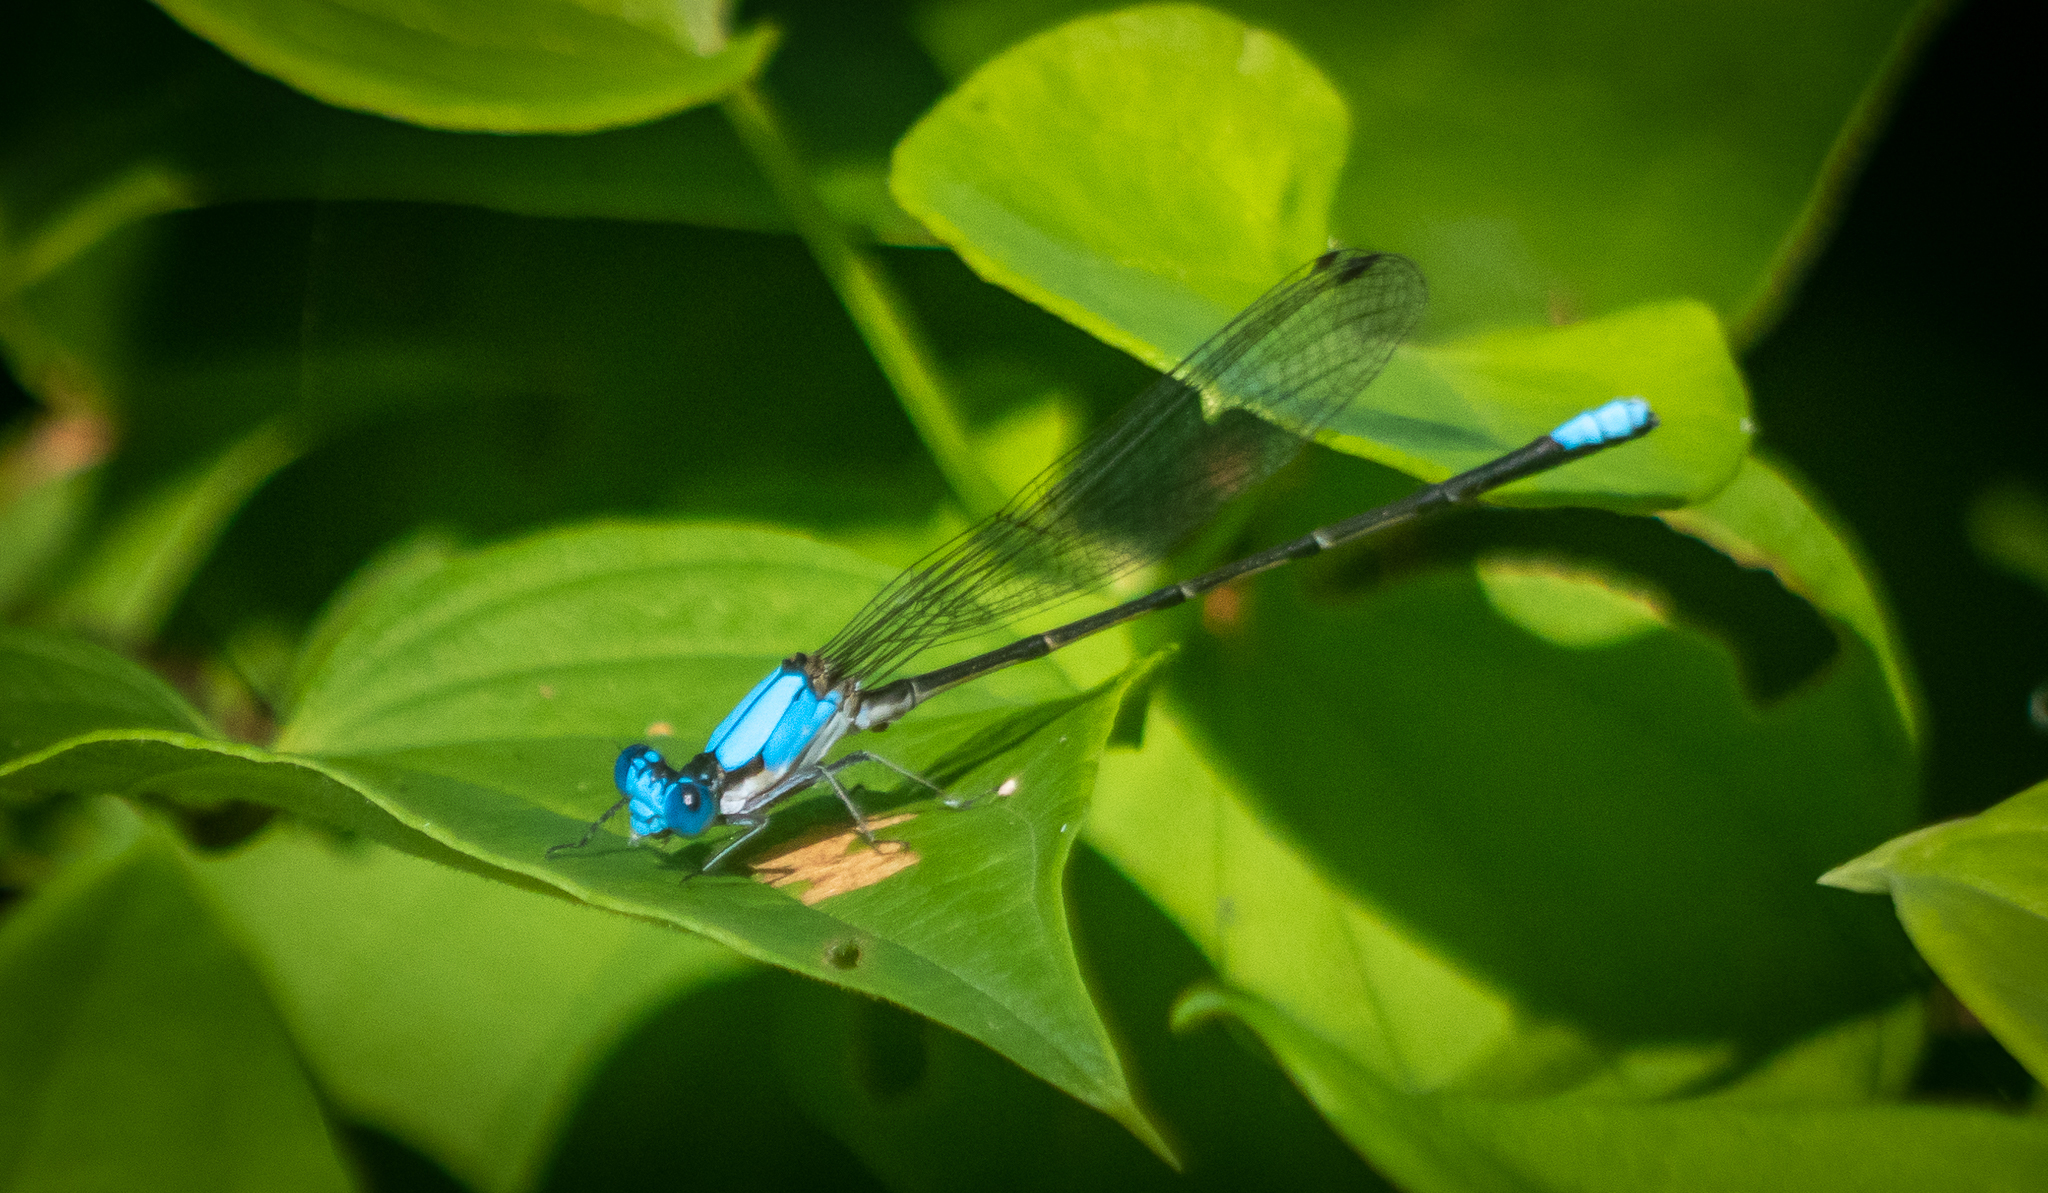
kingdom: Animalia
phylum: Arthropoda
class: Insecta
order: Odonata
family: Coenagrionidae
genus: Argia
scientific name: Argia apicalis
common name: Blue-fronted dancer
